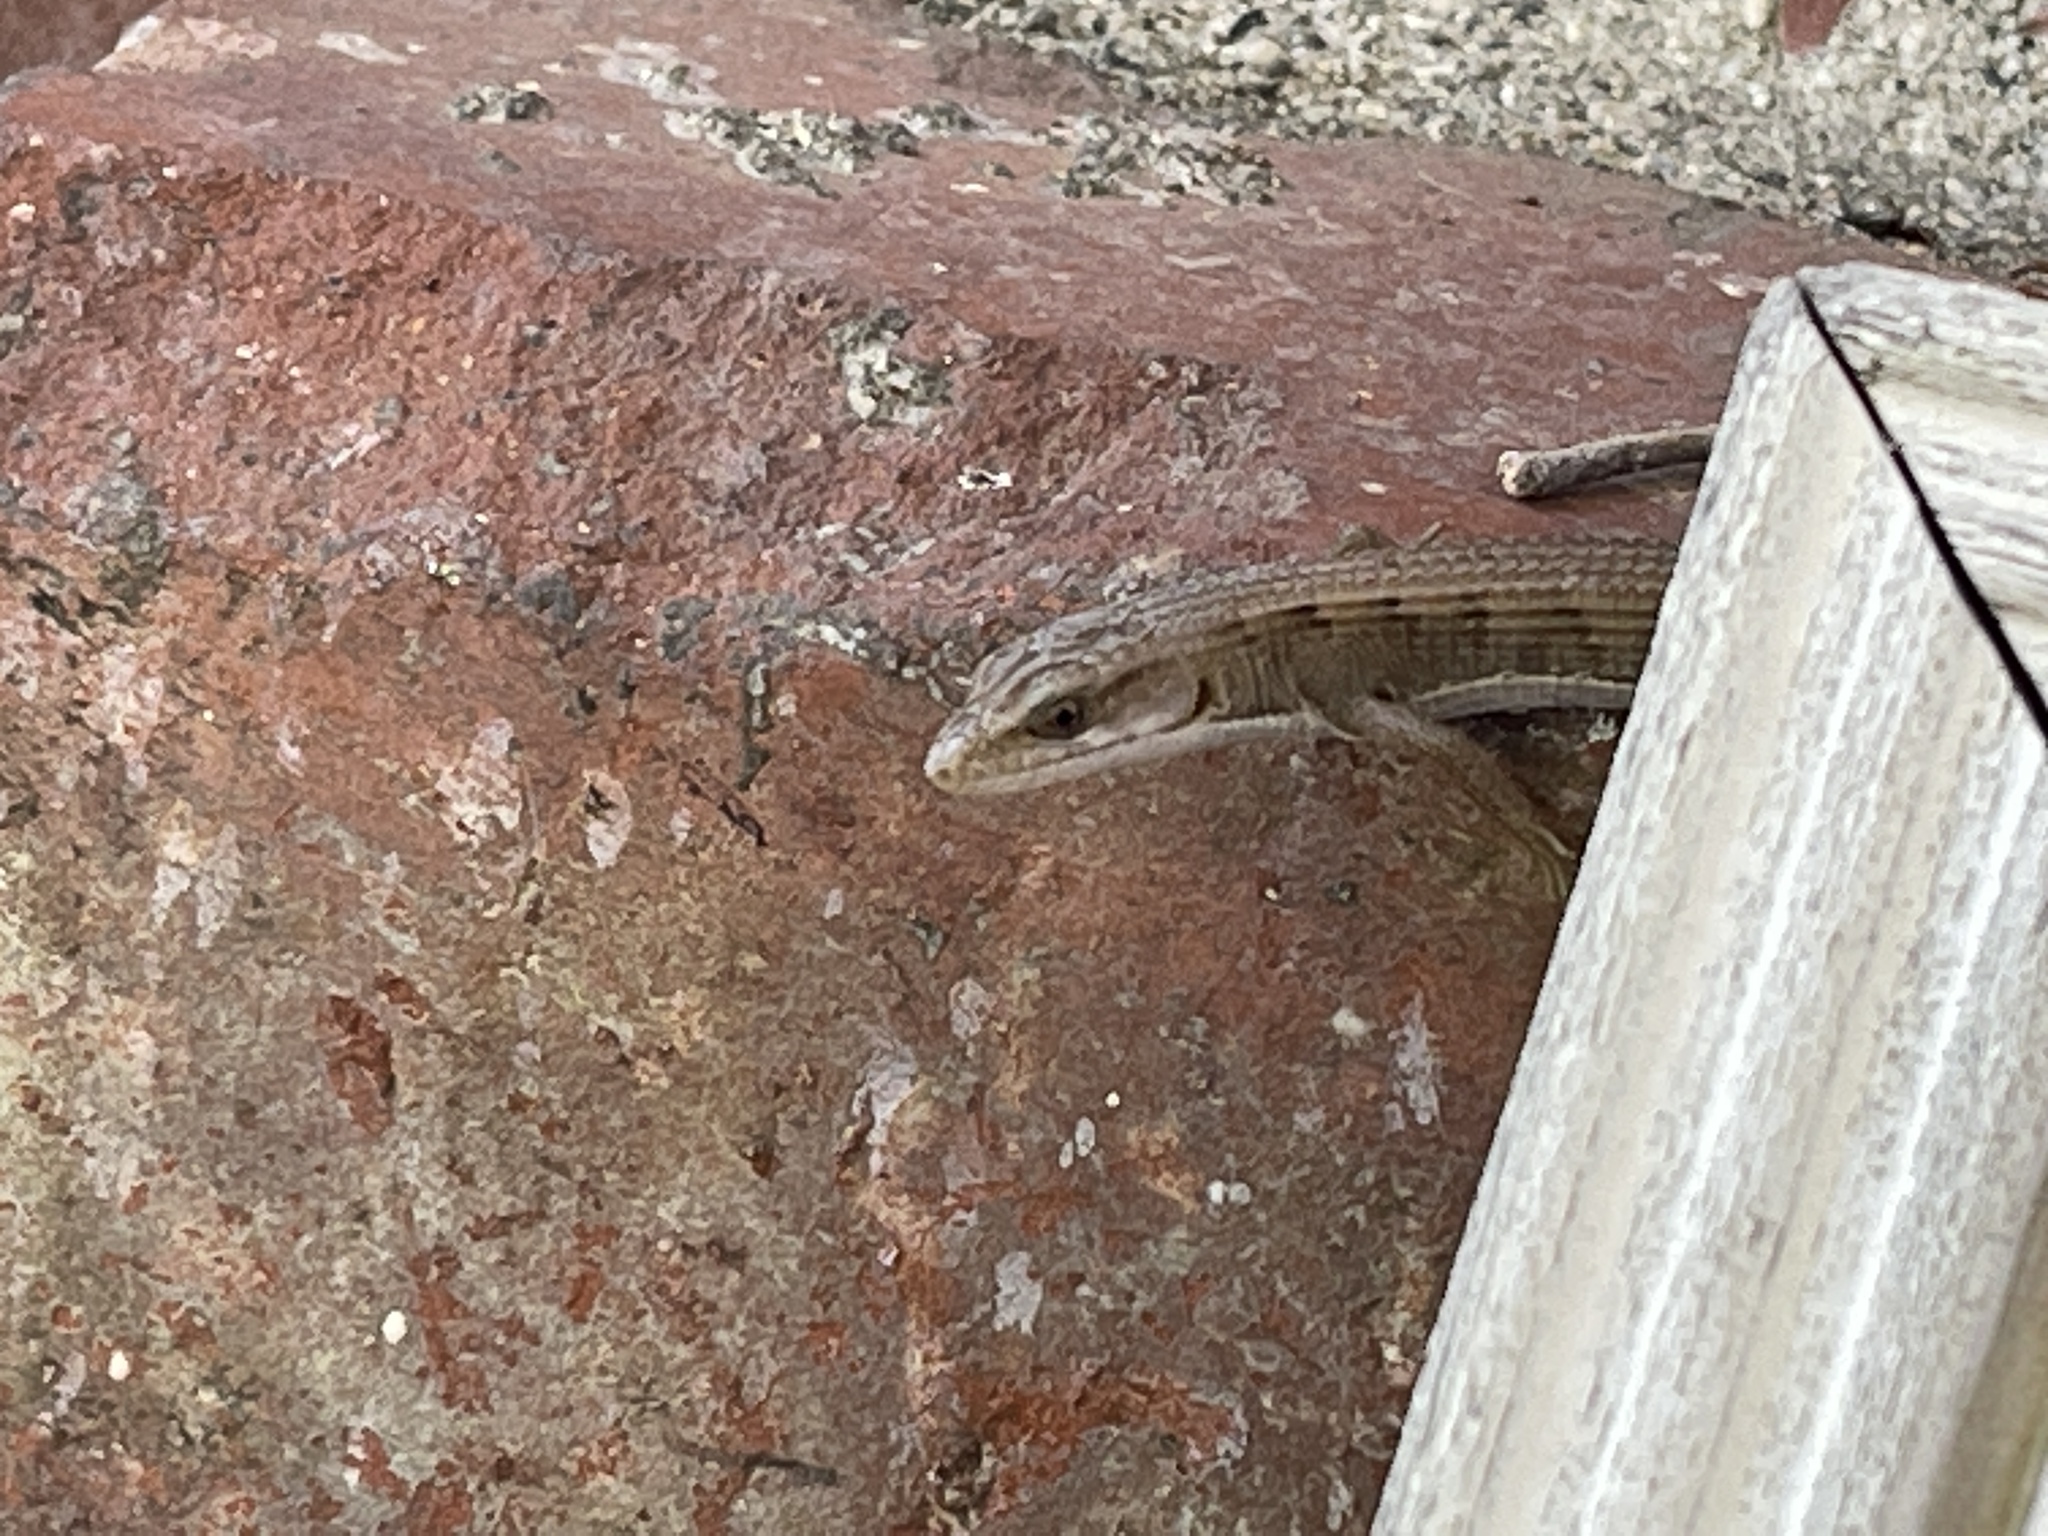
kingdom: Animalia
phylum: Chordata
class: Squamata
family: Anguidae
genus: Elgaria
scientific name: Elgaria multicarinata
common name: Southern alligator lizard
